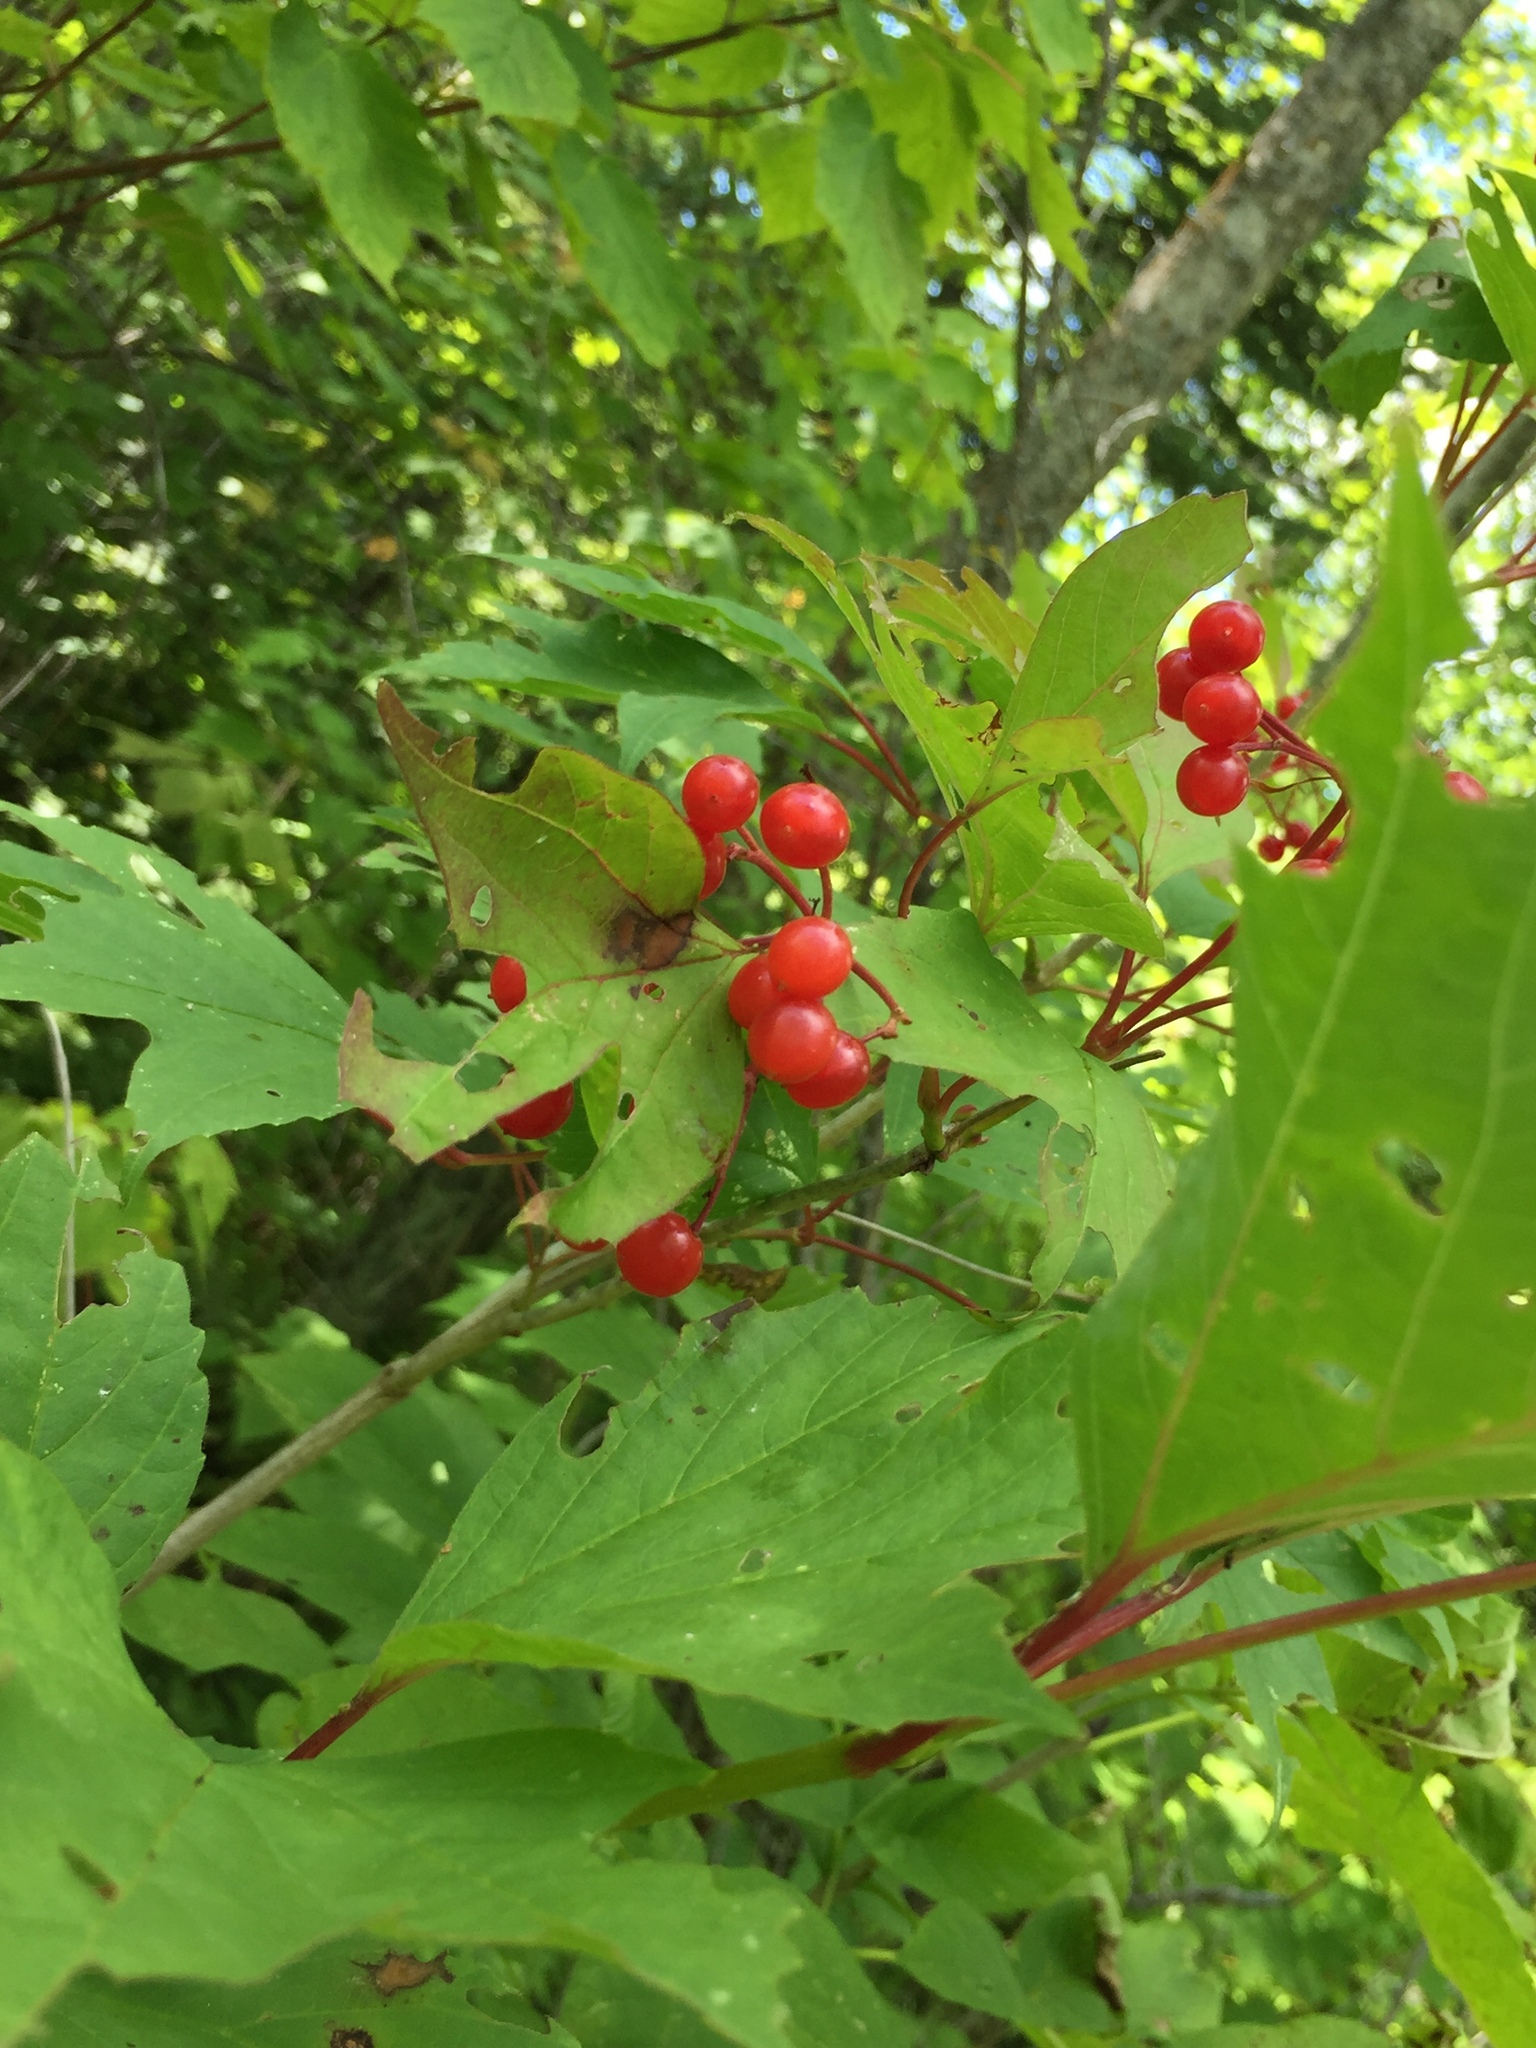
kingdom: Plantae
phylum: Tracheophyta
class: Magnoliopsida
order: Dipsacales
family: Viburnaceae
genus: Viburnum
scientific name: Viburnum trilobum
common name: American cranberrybush
